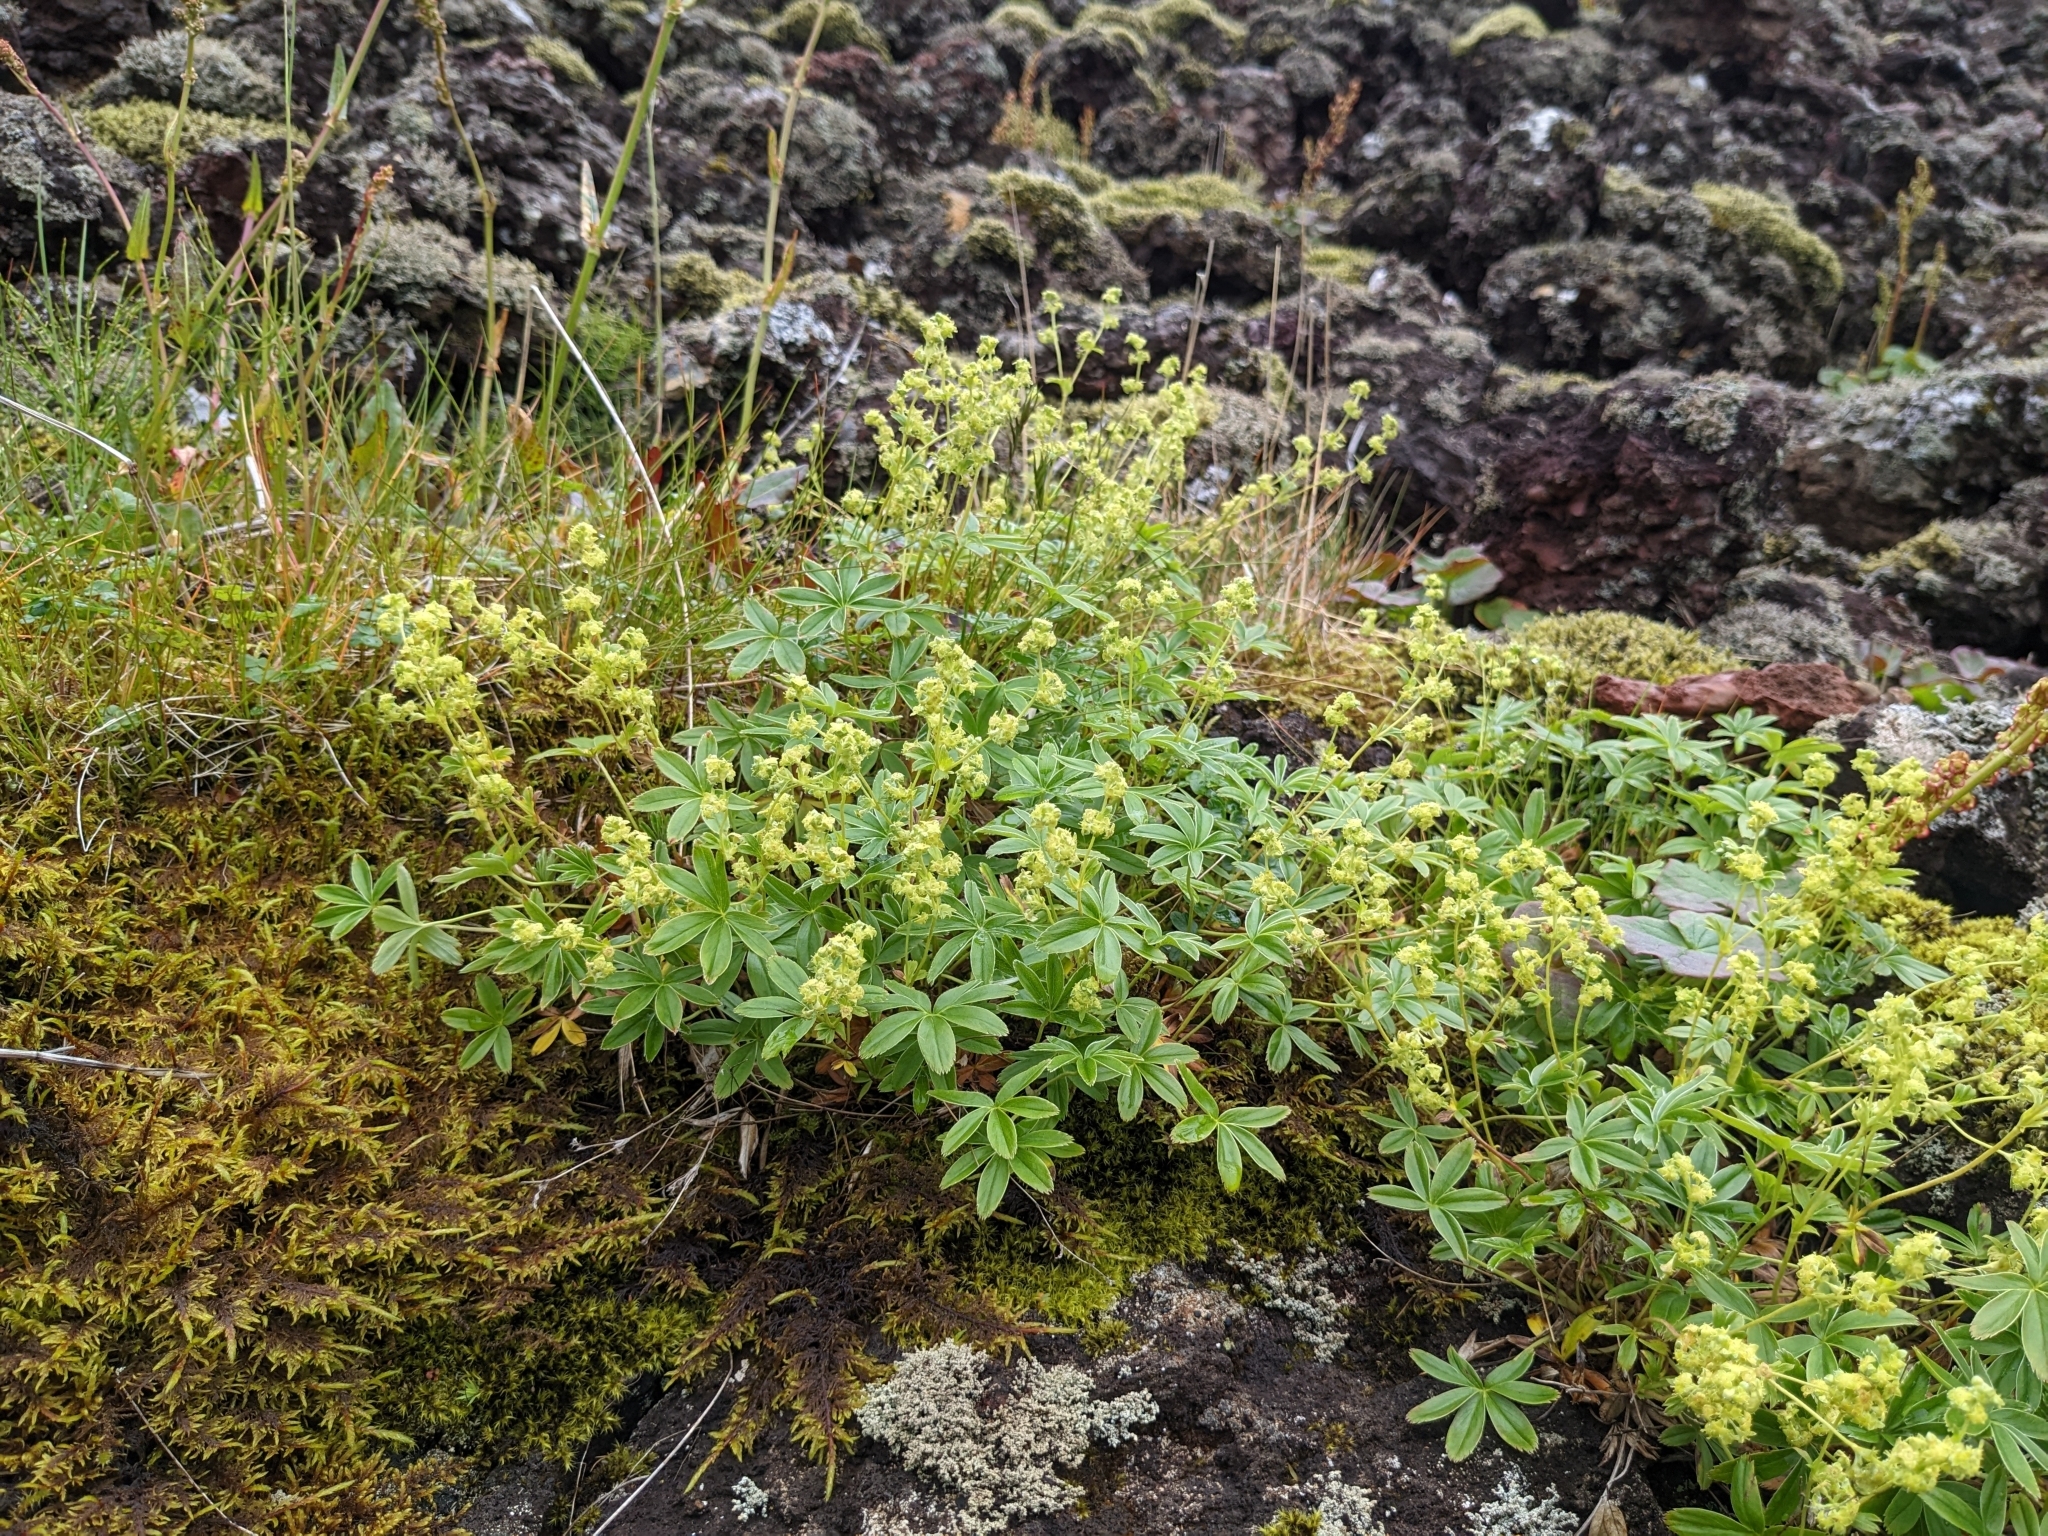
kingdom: Plantae
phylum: Tracheophyta
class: Magnoliopsida
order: Rosales
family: Rosaceae
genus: Alchemilla
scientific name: Alchemilla alpina
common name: Alpine lady's-mantle
